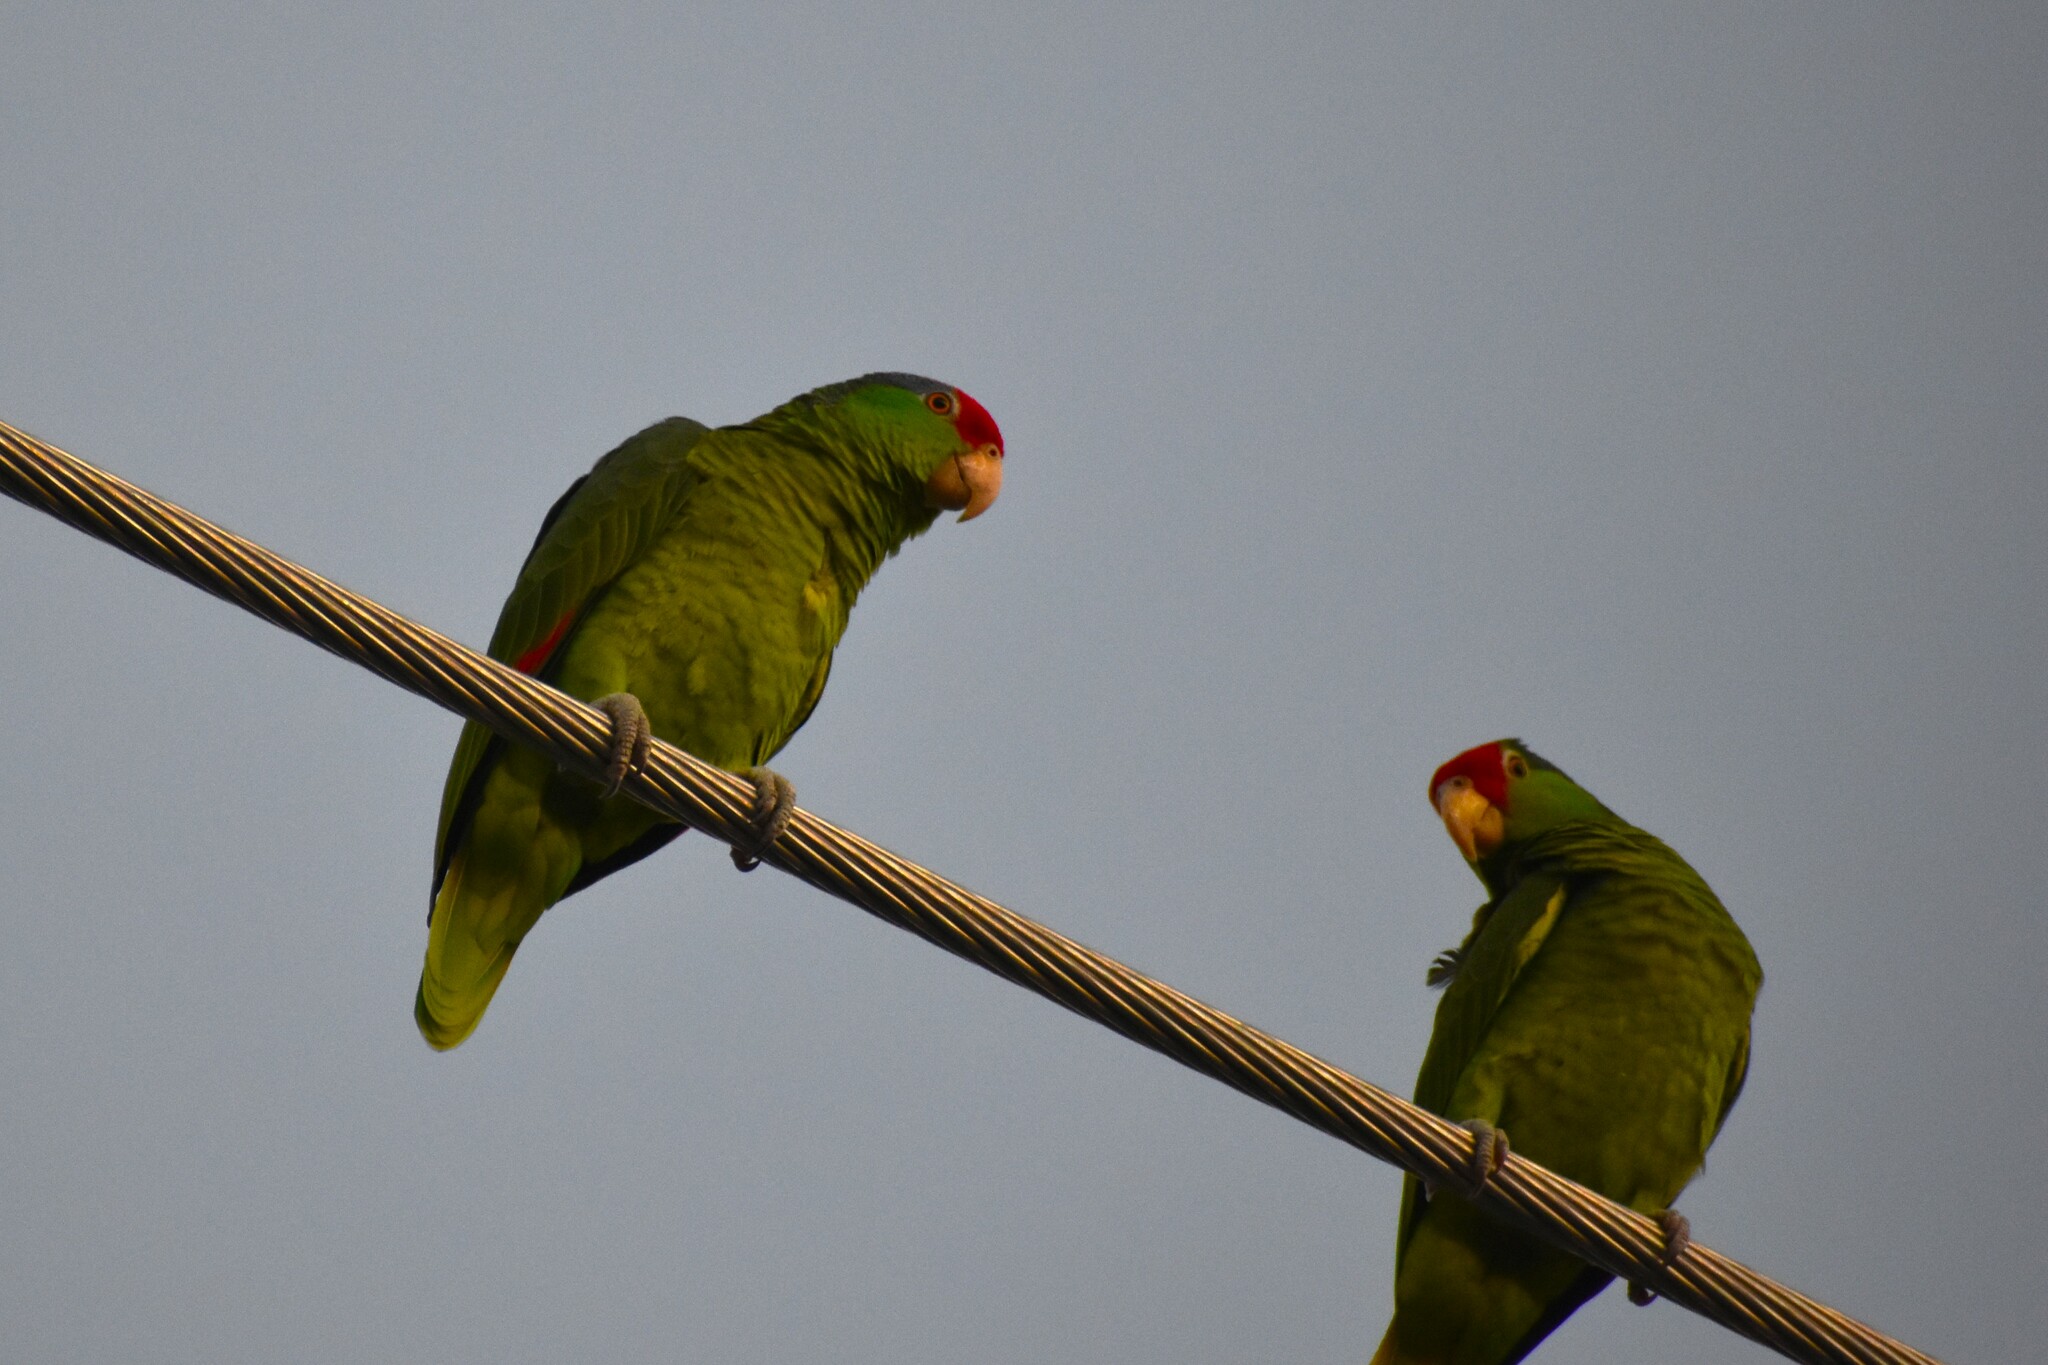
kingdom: Animalia
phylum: Chordata
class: Aves
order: Psittaciformes
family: Psittacidae
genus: Amazona
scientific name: Amazona viridigenalis
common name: Red-crowned amazon
